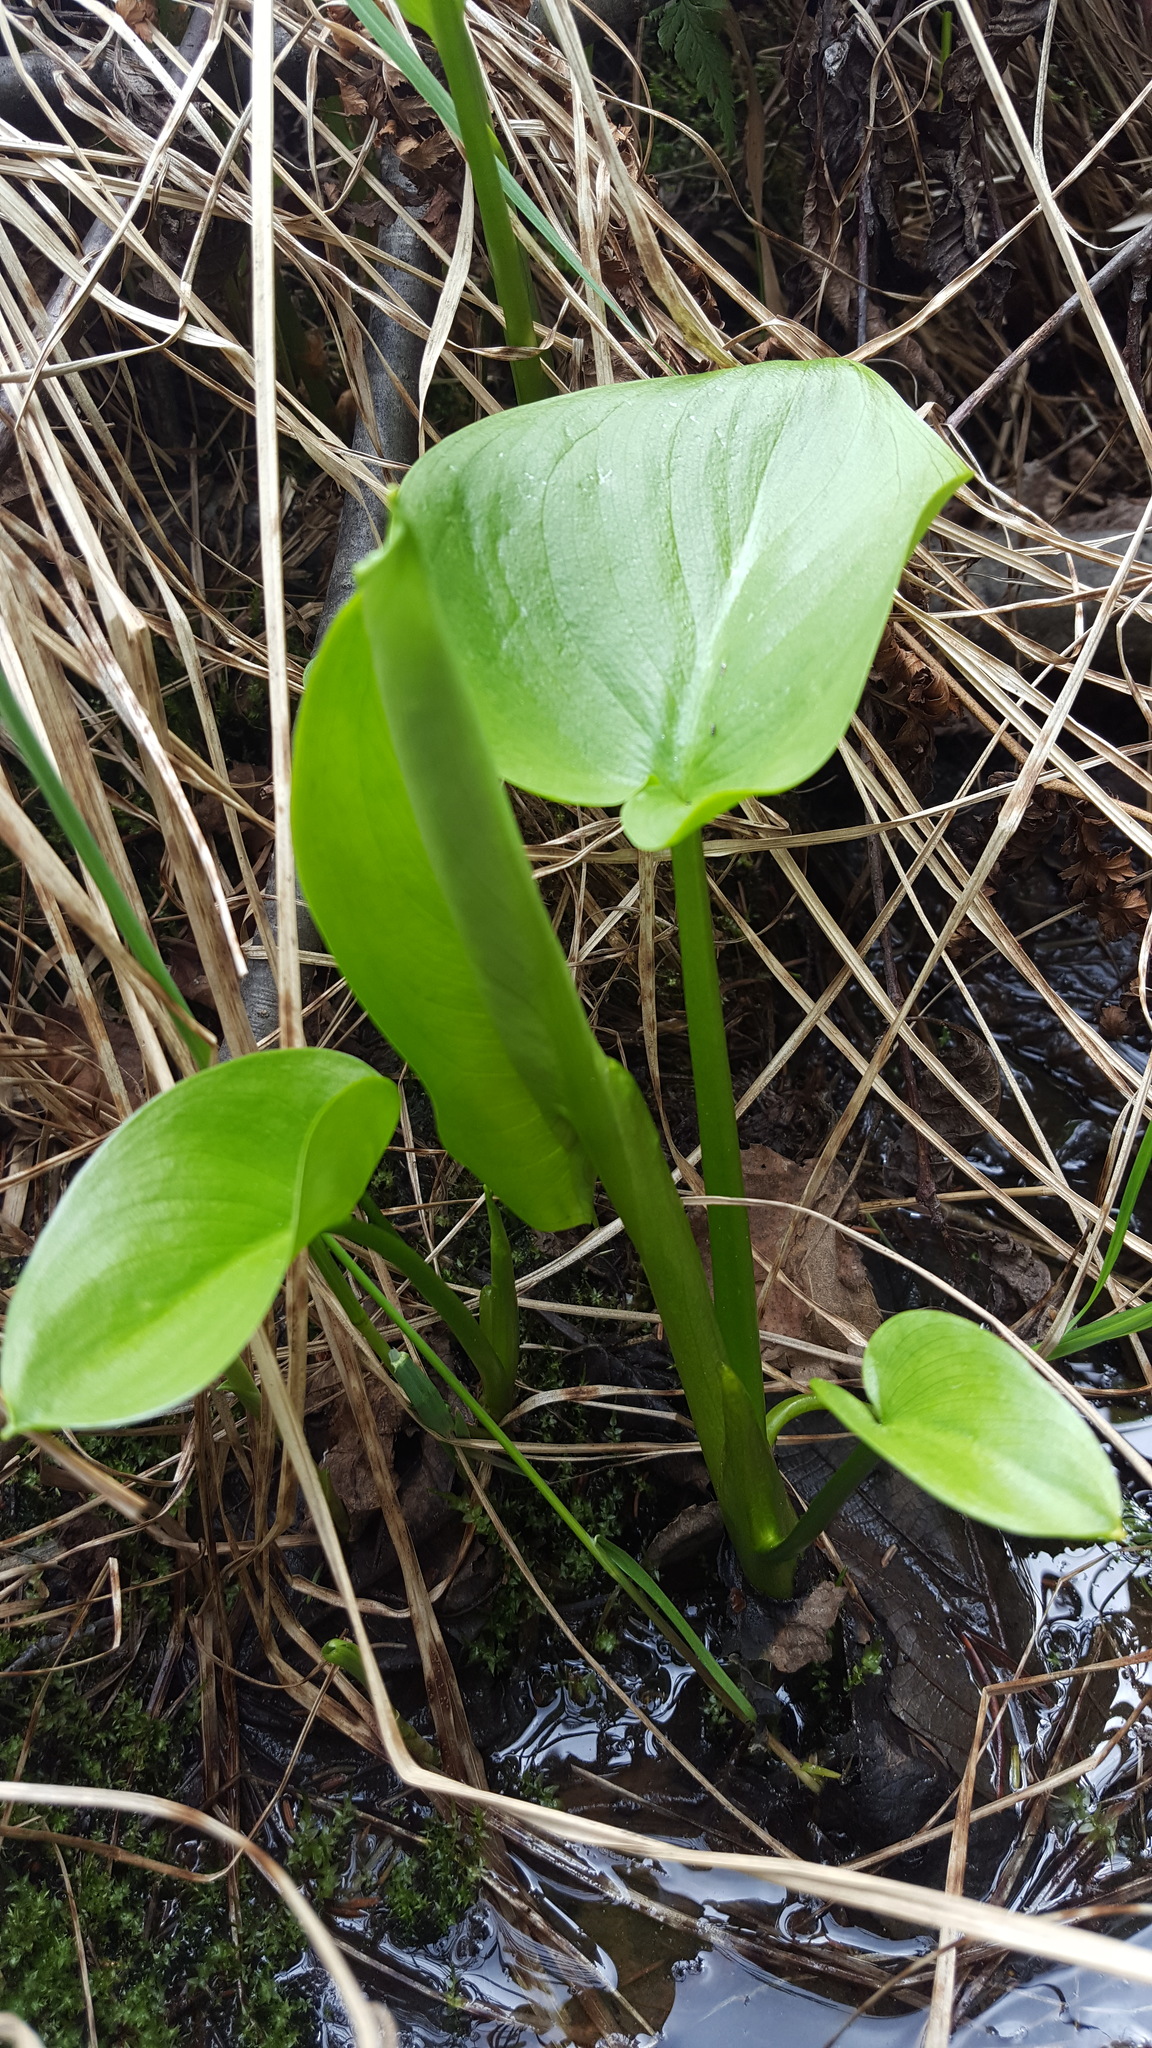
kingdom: Plantae
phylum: Tracheophyta
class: Liliopsida
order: Alismatales
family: Araceae
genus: Calla
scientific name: Calla palustris
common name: Bog arum
